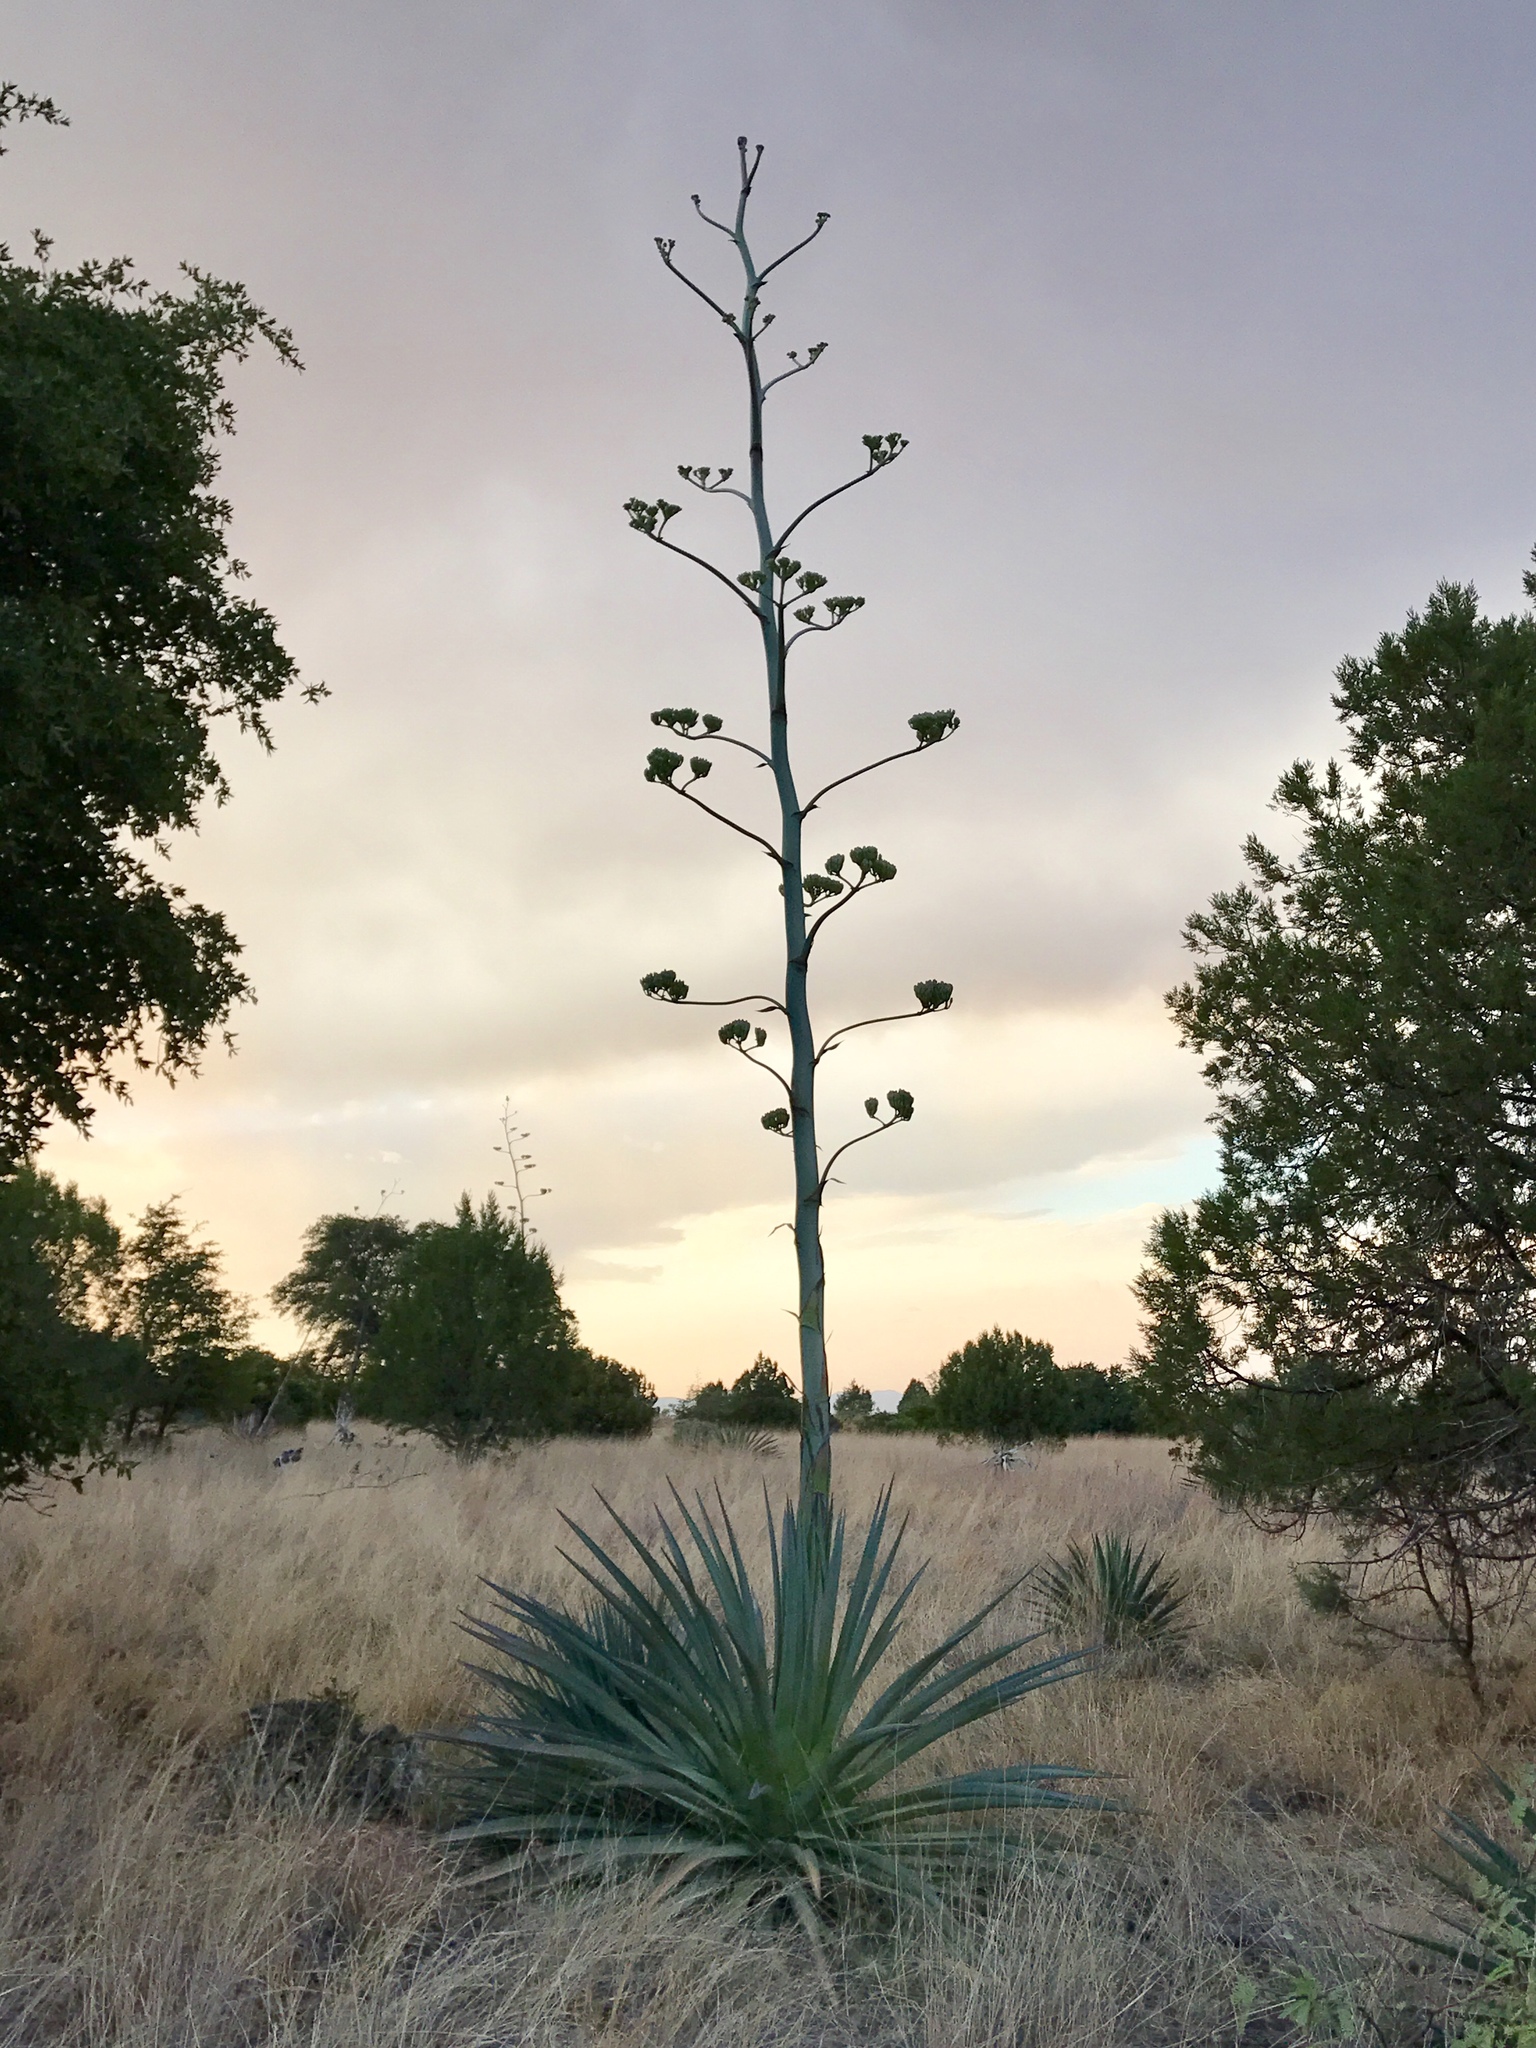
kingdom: Plantae
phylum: Tracheophyta
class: Liliopsida
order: Asparagales
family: Asparagaceae
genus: Agave
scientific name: Agave palmeri
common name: Palmer agave
